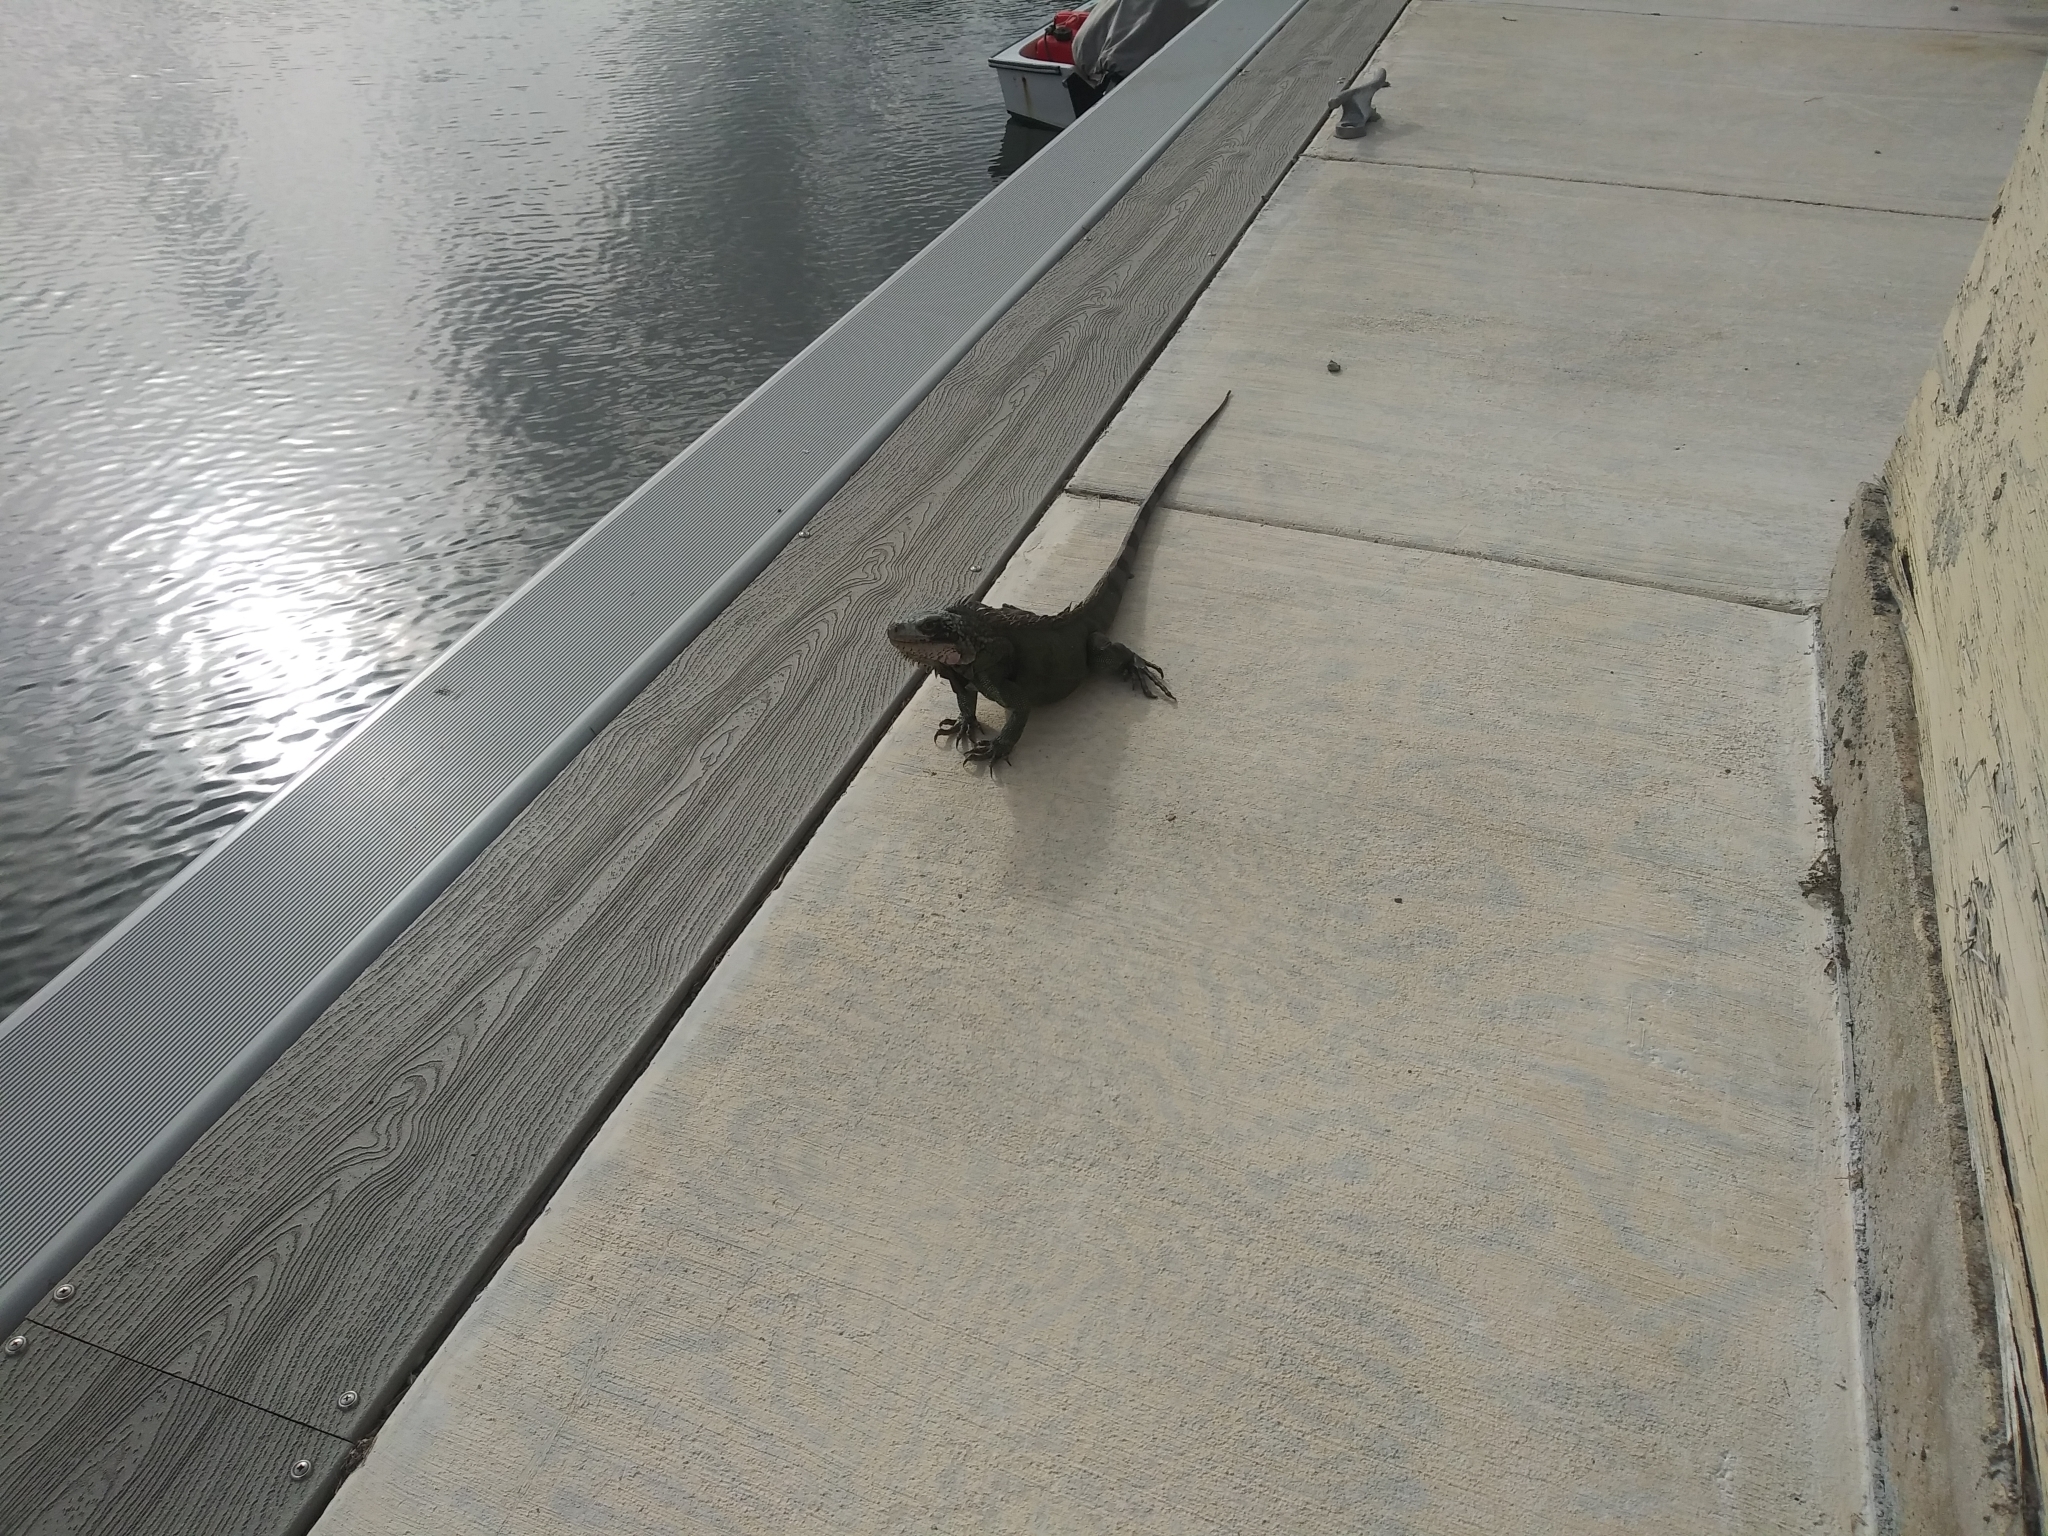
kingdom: Animalia
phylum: Chordata
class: Squamata
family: Iguanidae
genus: Iguana
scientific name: Iguana iguana
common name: Green iguana
